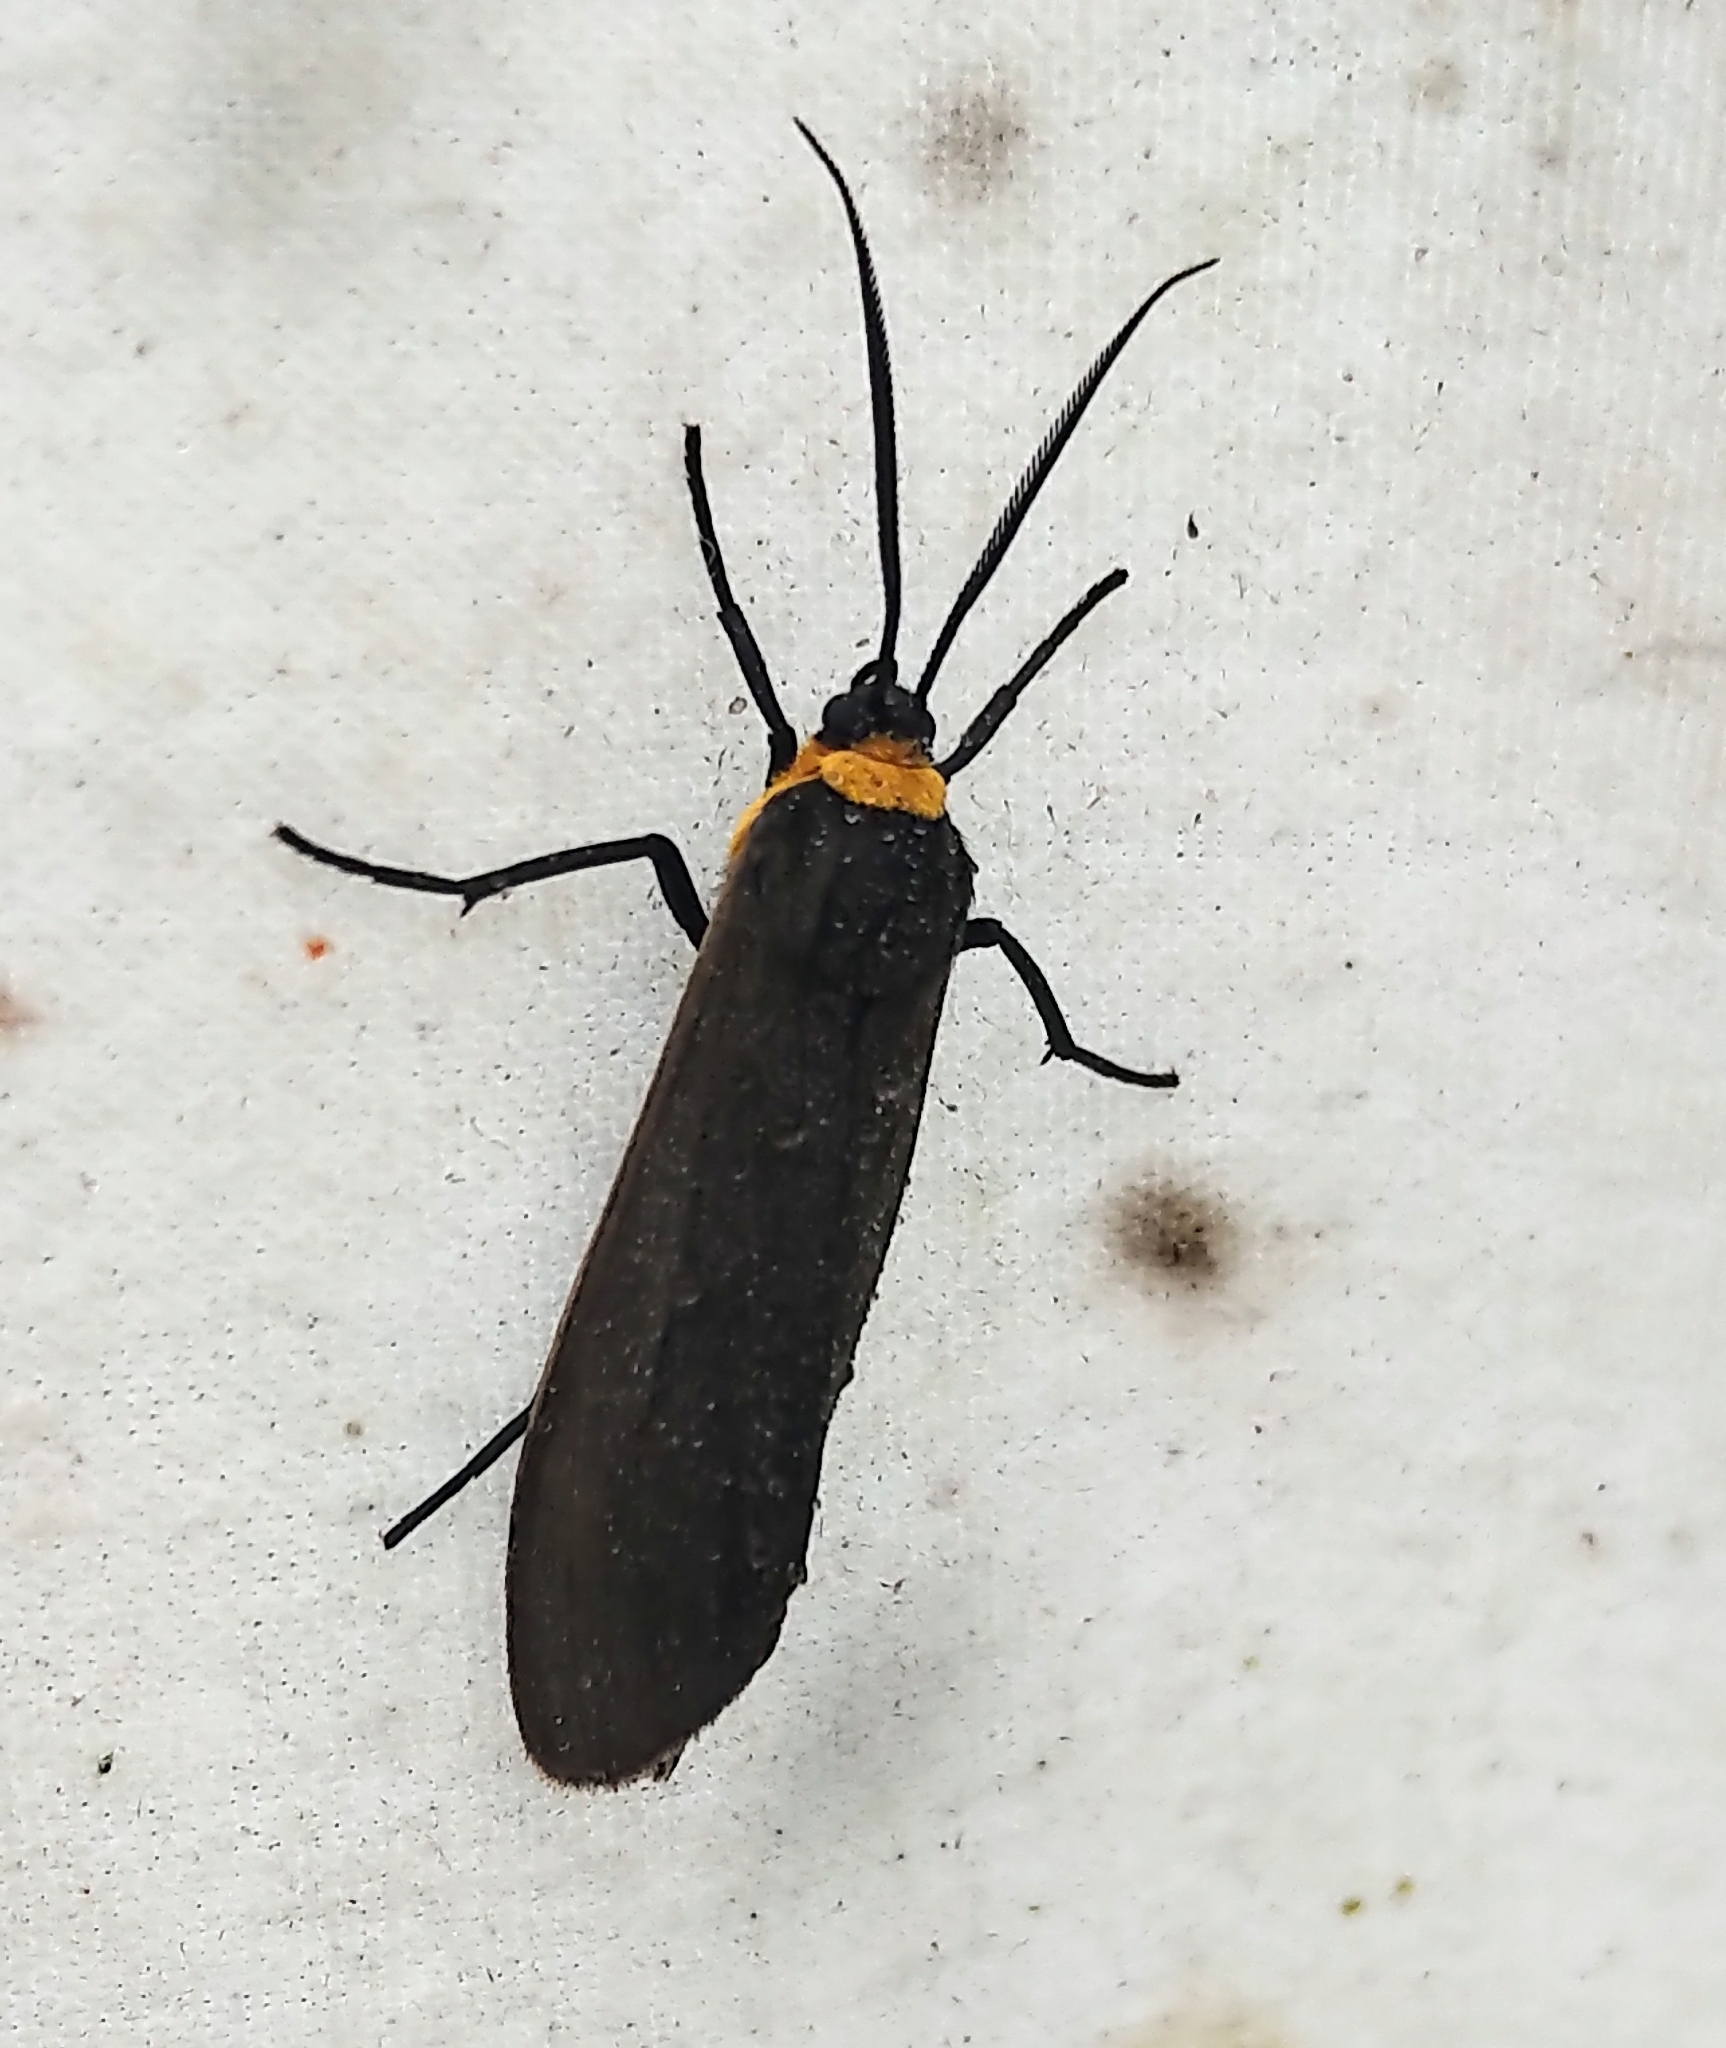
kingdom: Animalia
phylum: Arthropoda
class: Insecta
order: Lepidoptera
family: Erebidae
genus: Cisseps
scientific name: Cisseps fulvicollis
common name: Yellow-collared scape moth
